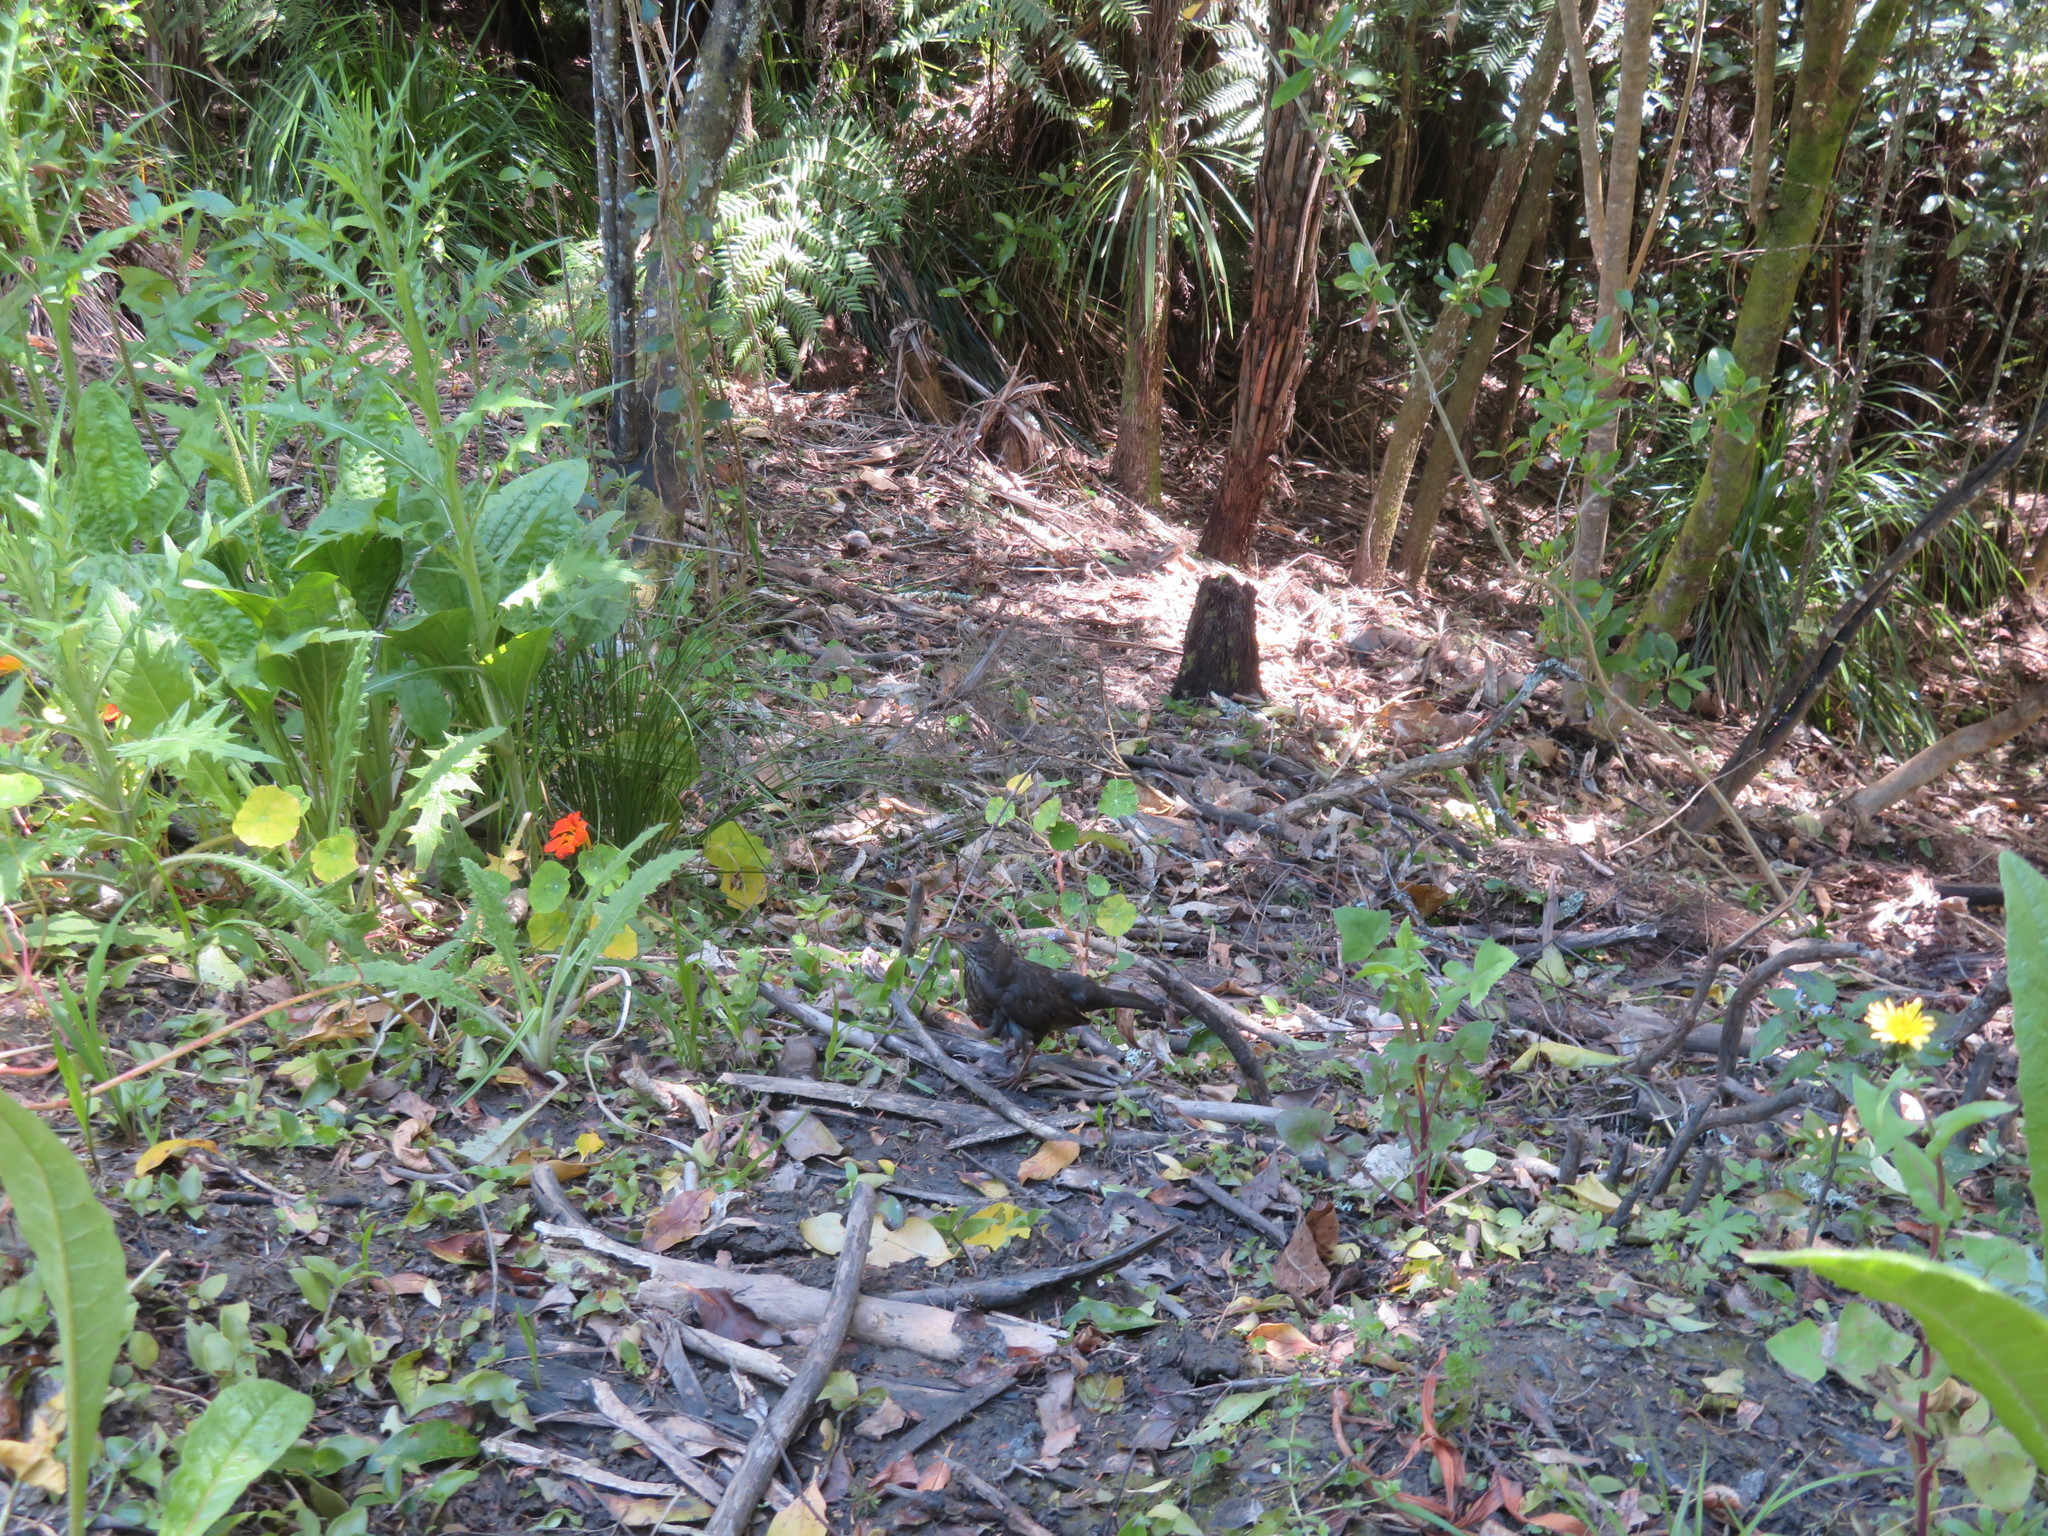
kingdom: Animalia
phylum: Chordata
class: Aves
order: Passeriformes
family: Turdidae
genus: Turdus
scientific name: Turdus merula
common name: Common blackbird
